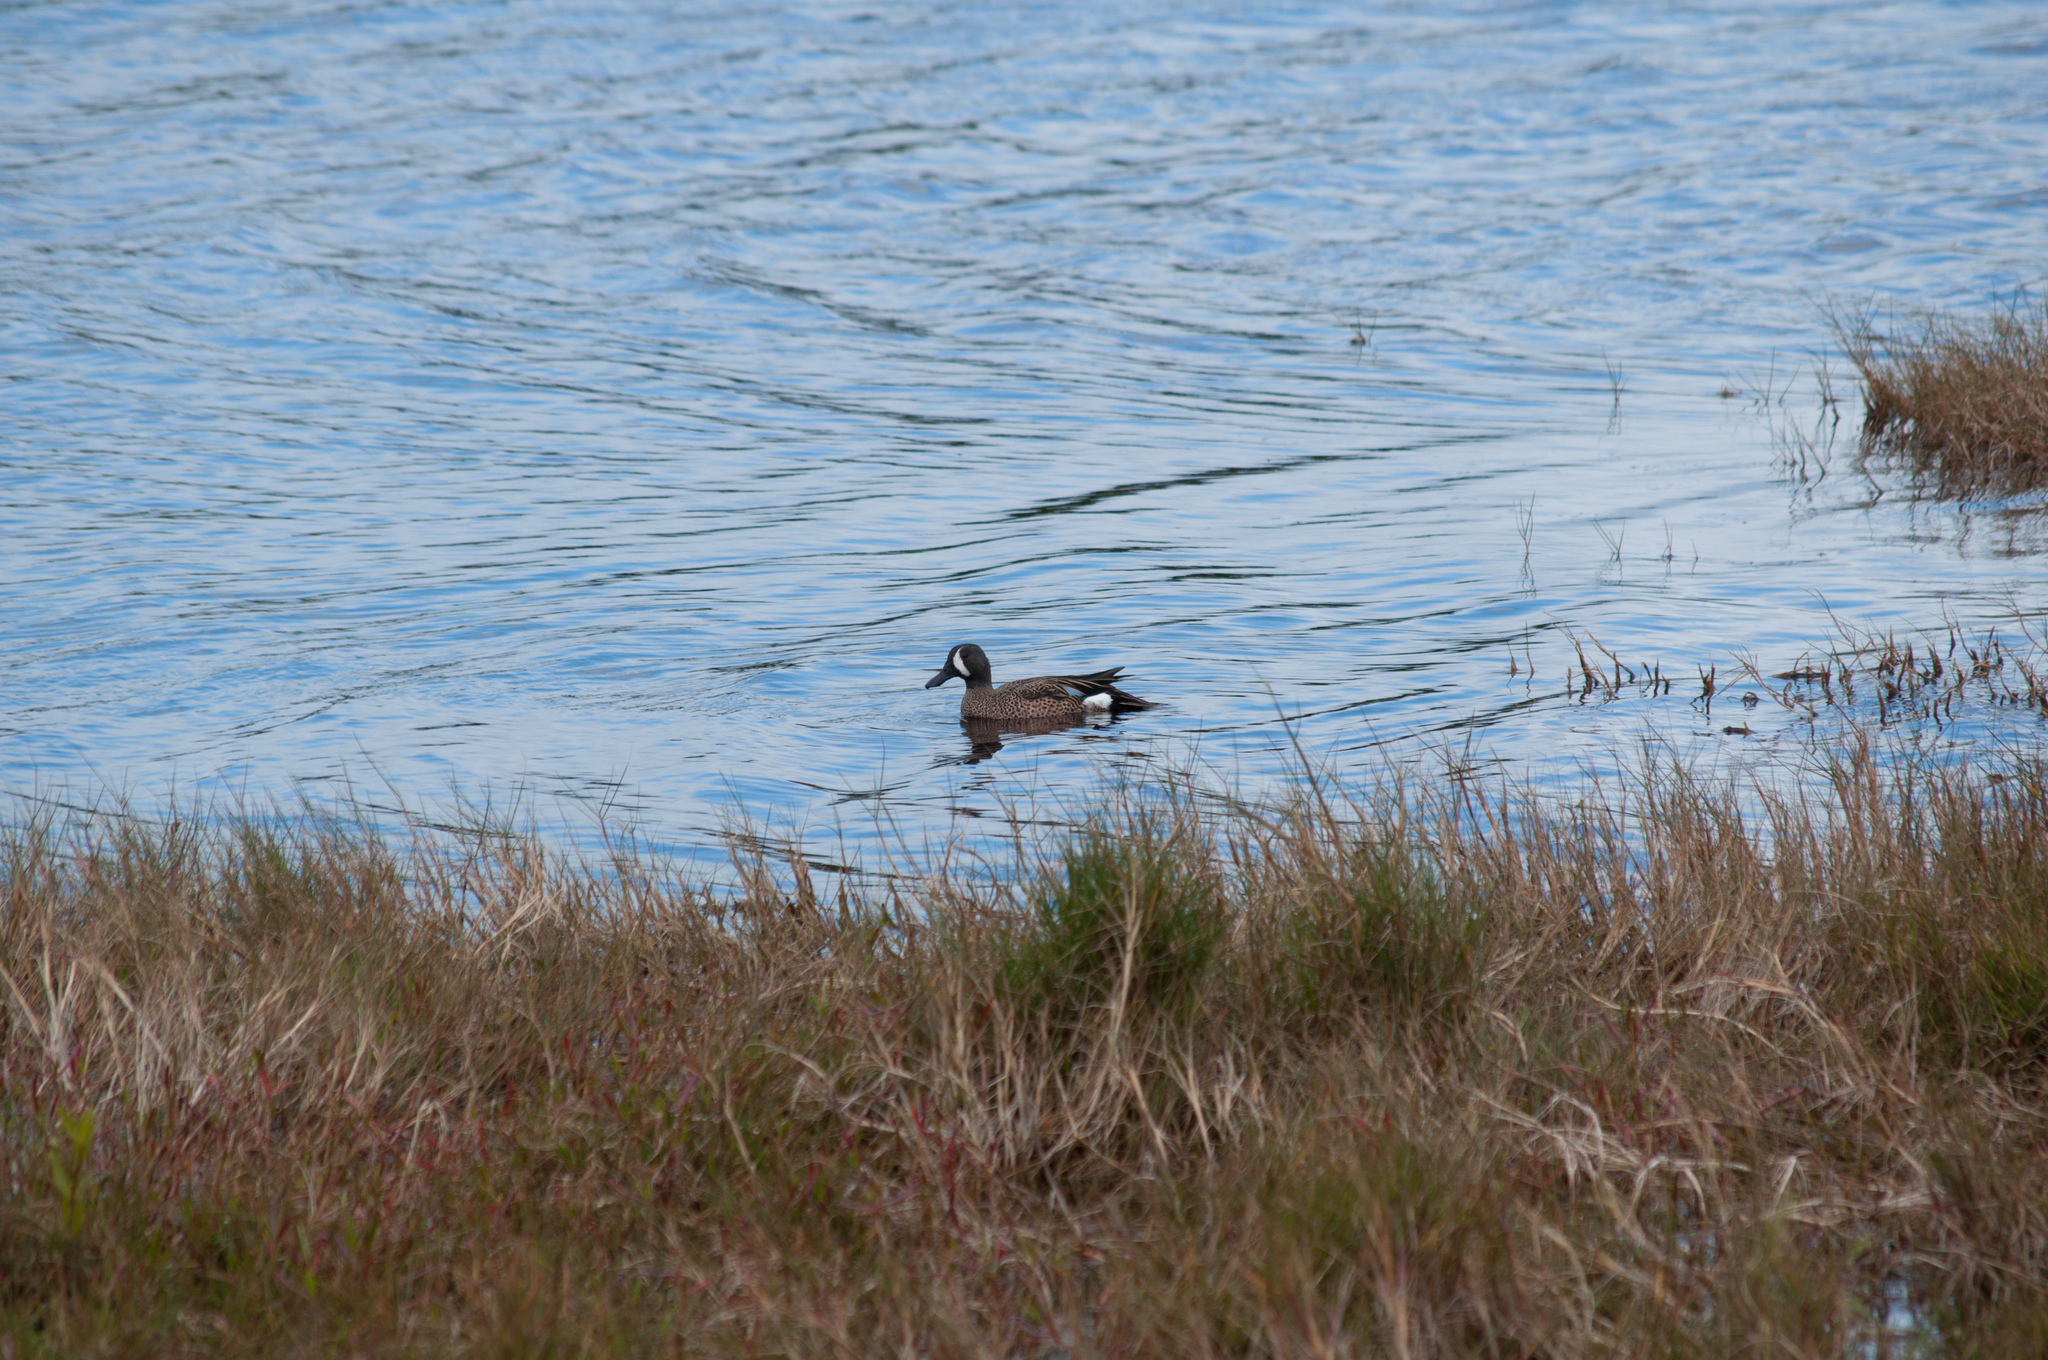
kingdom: Animalia
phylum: Chordata
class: Aves
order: Anseriformes
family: Anatidae
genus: Spatula
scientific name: Spatula discors
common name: Blue-winged teal
